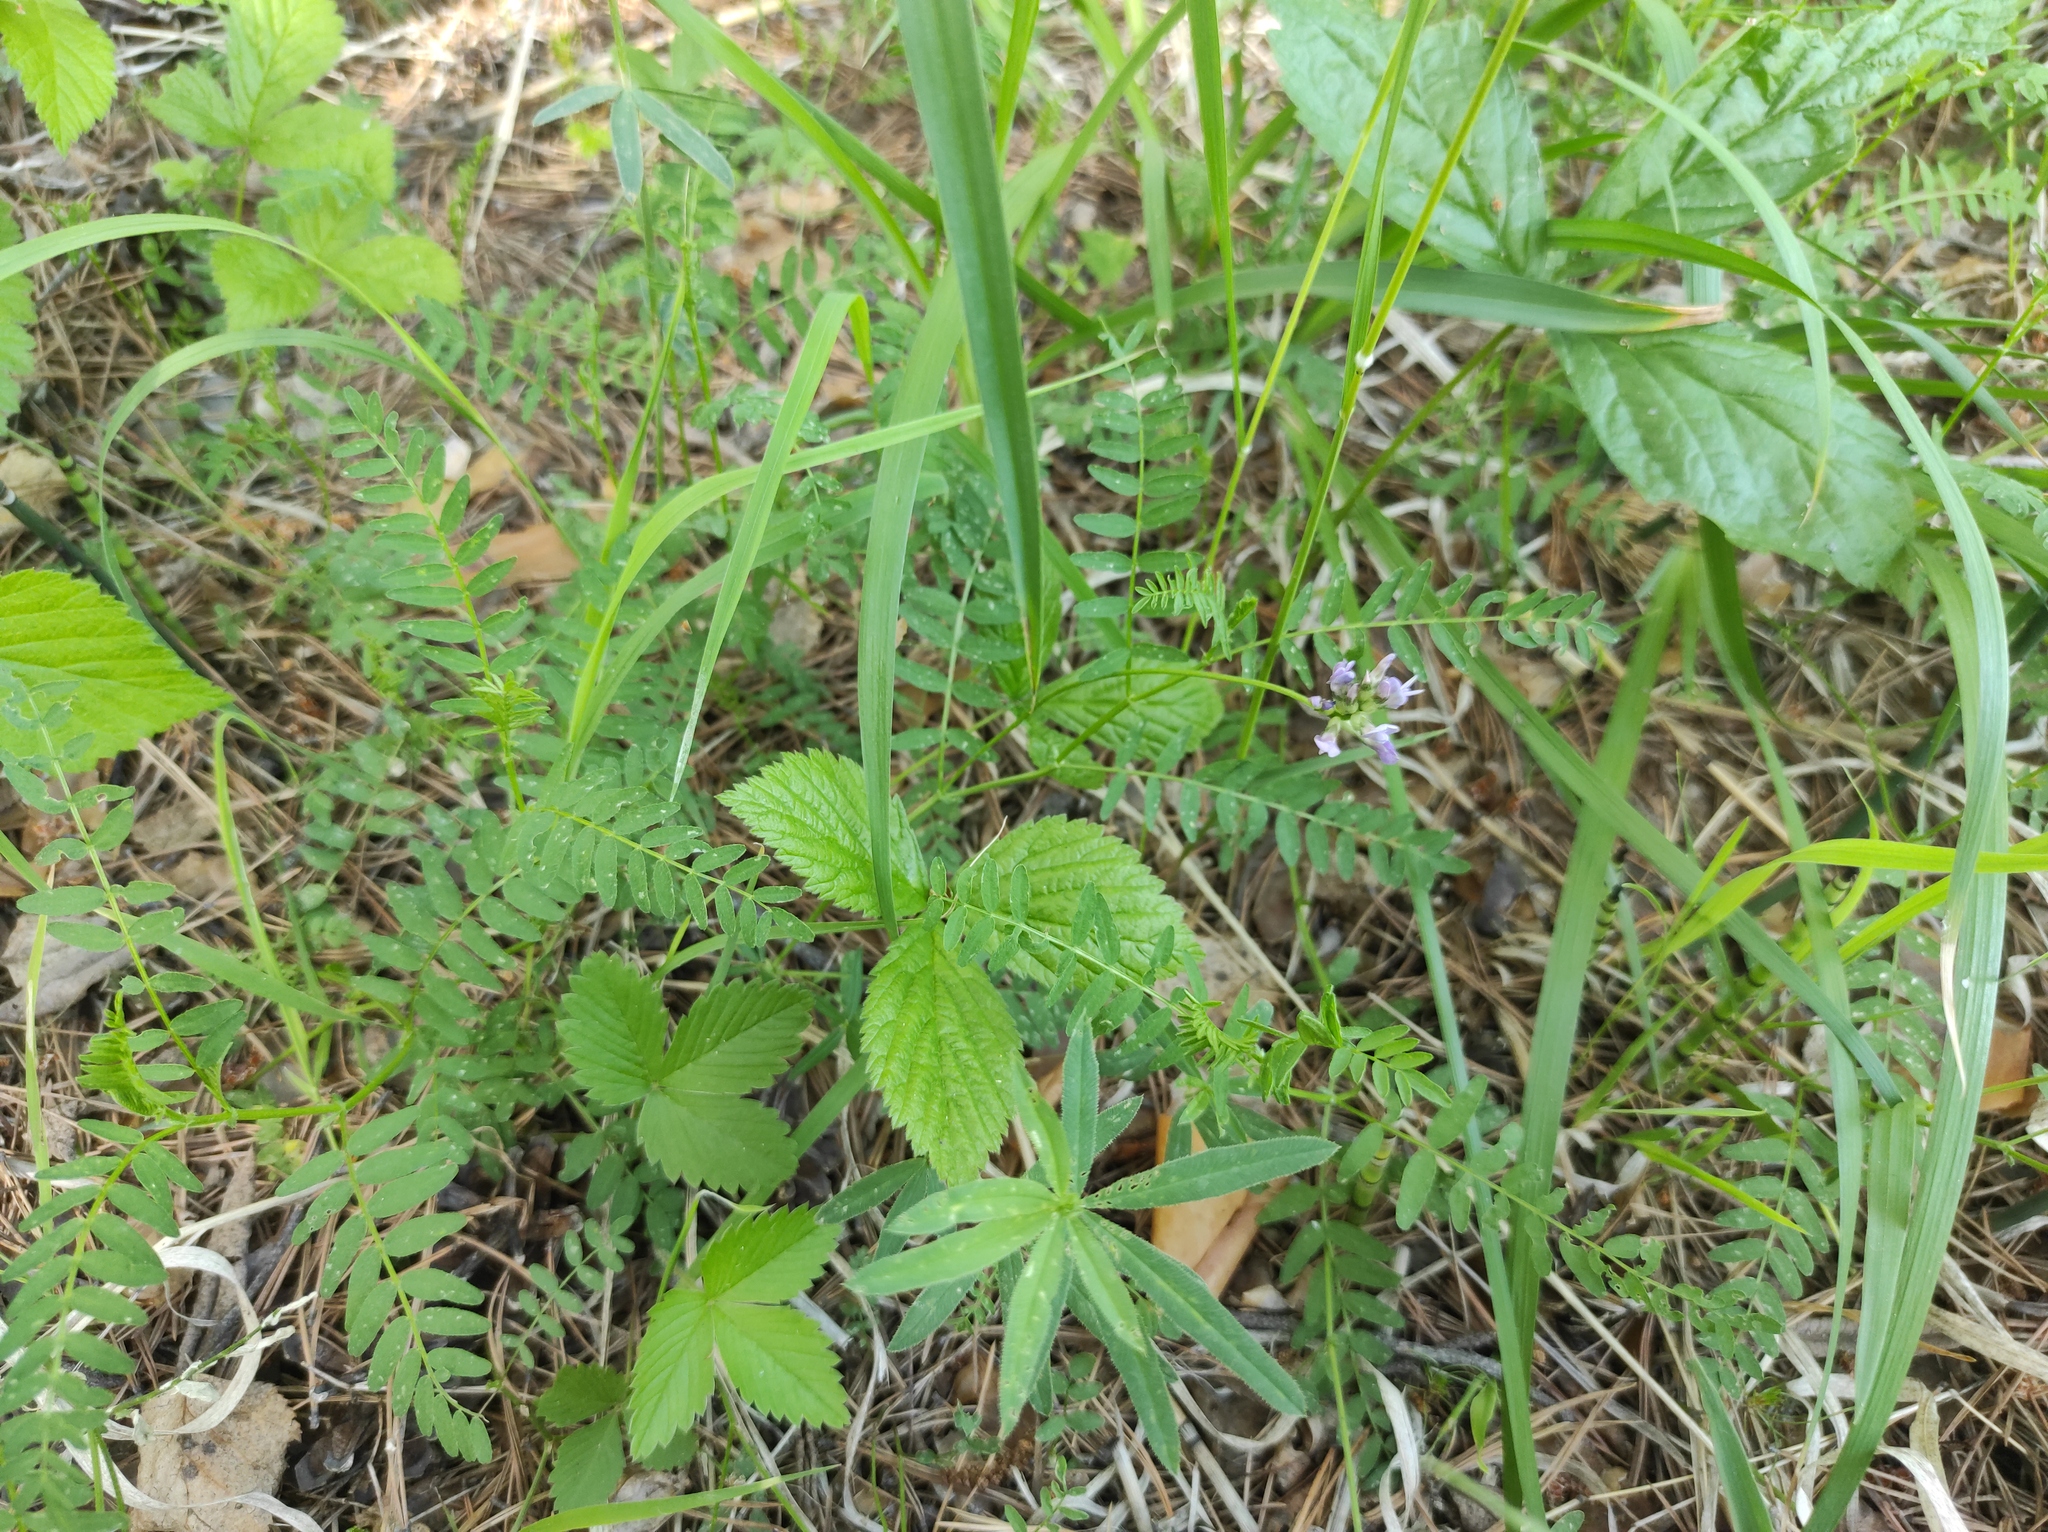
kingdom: Plantae
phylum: Tracheophyta
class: Magnoliopsida
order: Fabales
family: Fabaceae
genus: Astragalus
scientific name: Astragalus danicus
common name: Purple milk-vetch
